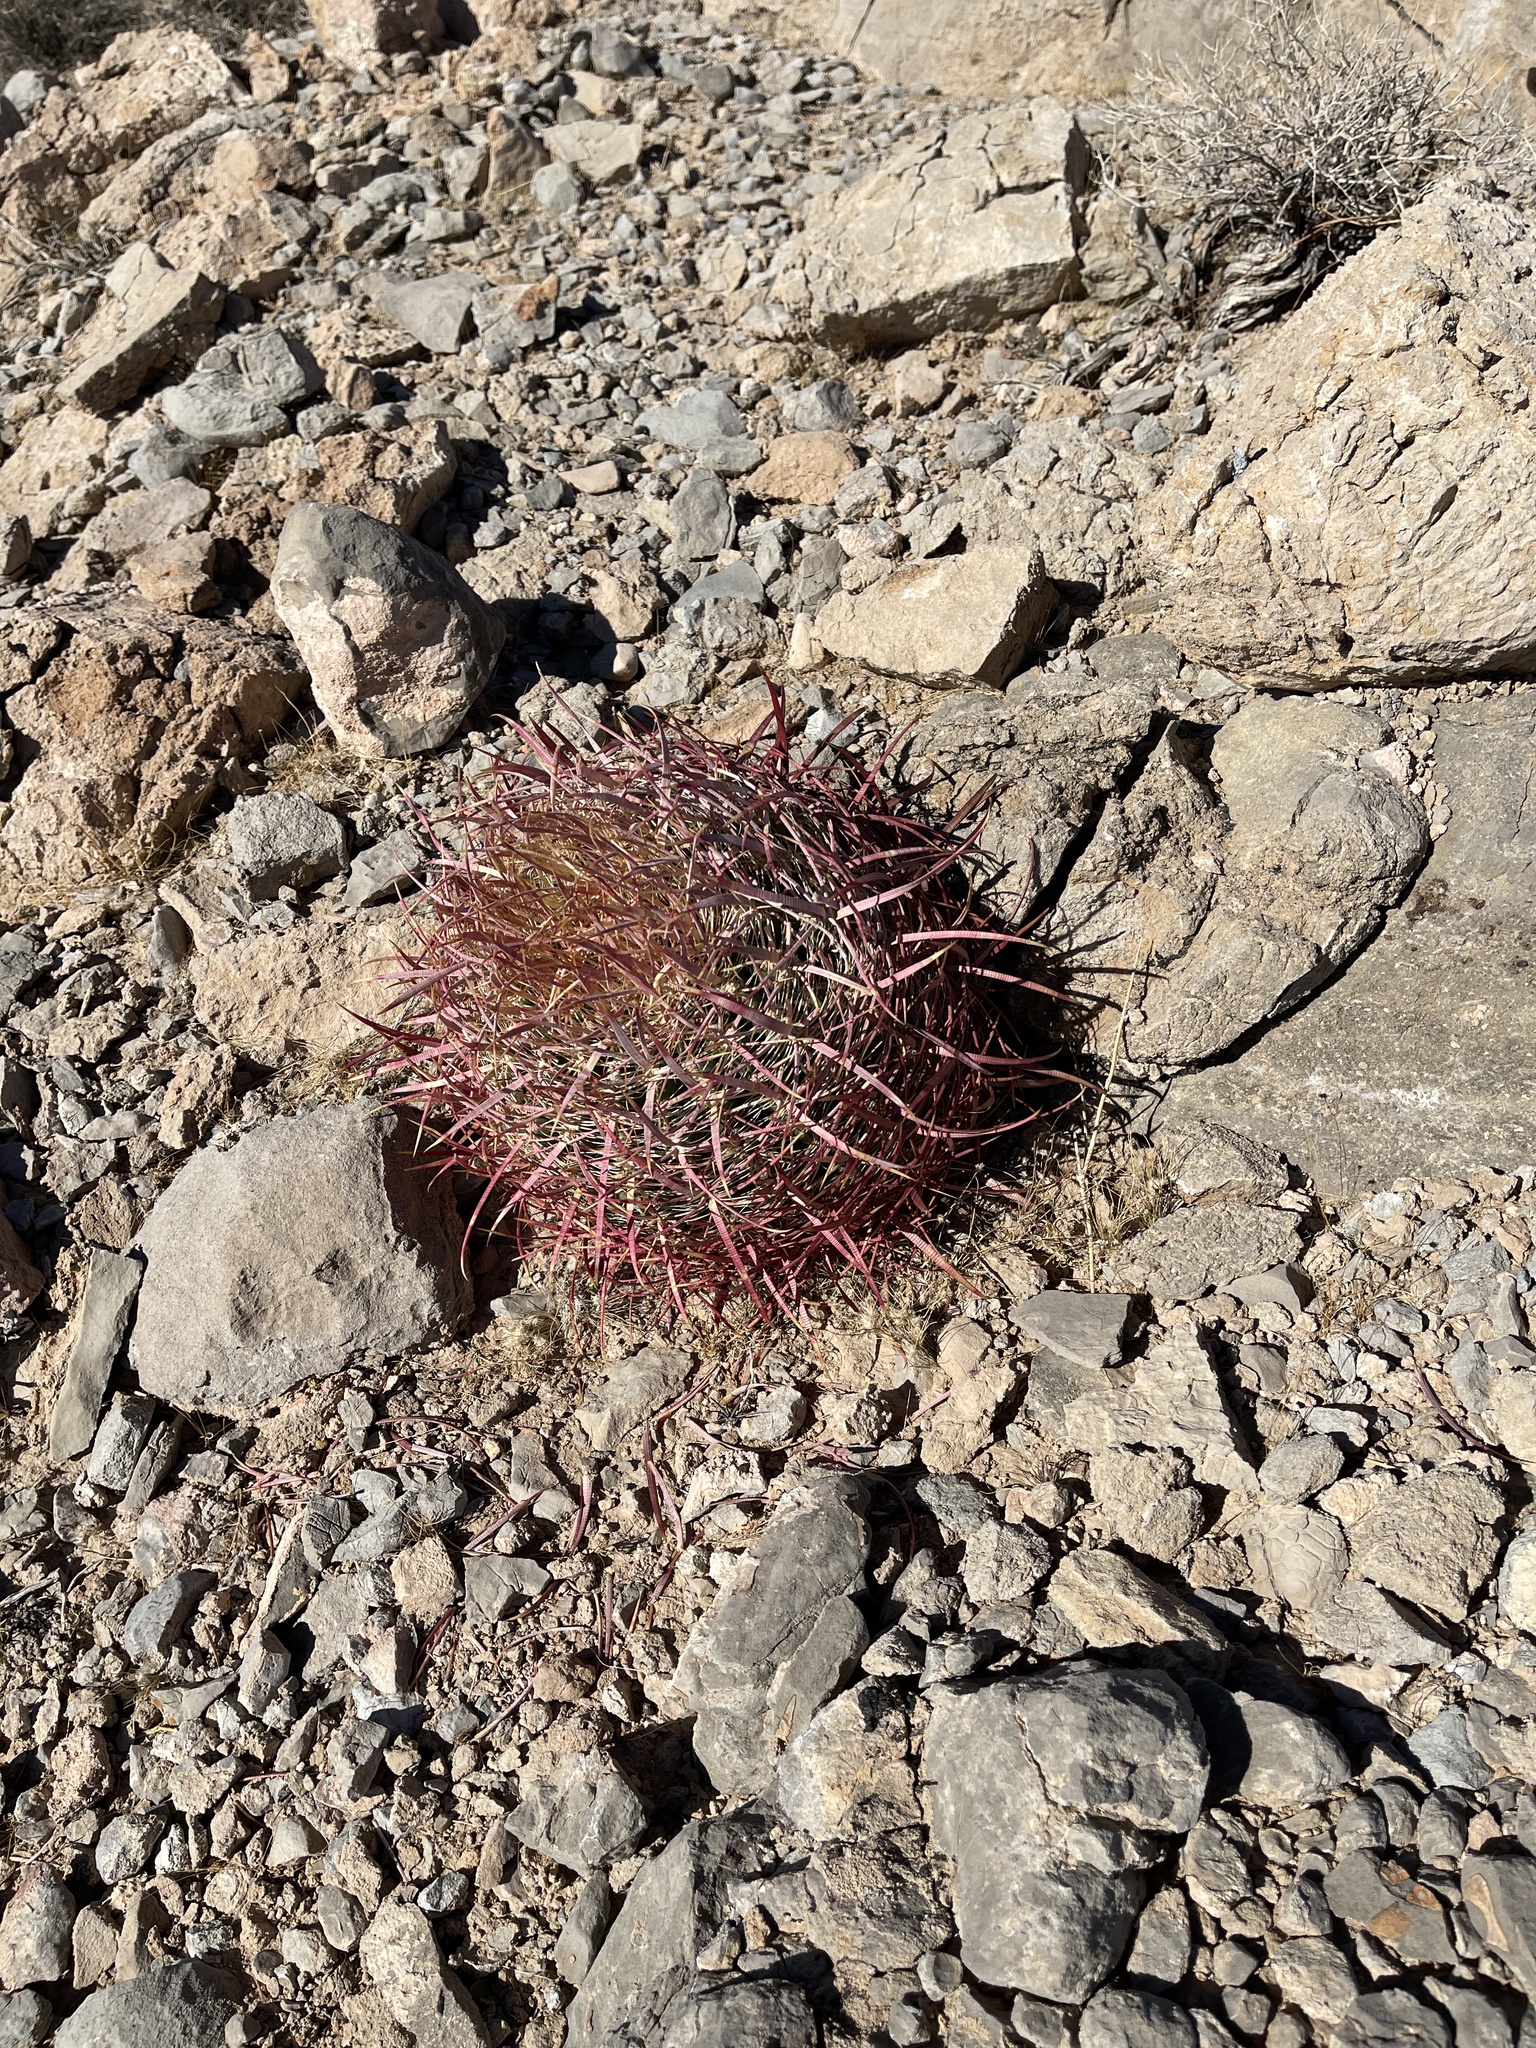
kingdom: Plantae
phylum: Tracheophyta
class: Magnoliopsida
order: Caryophyllales
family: Cactaceae
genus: Ferocactus
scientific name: Ferocactus cylindraceus
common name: California barrel cactus
